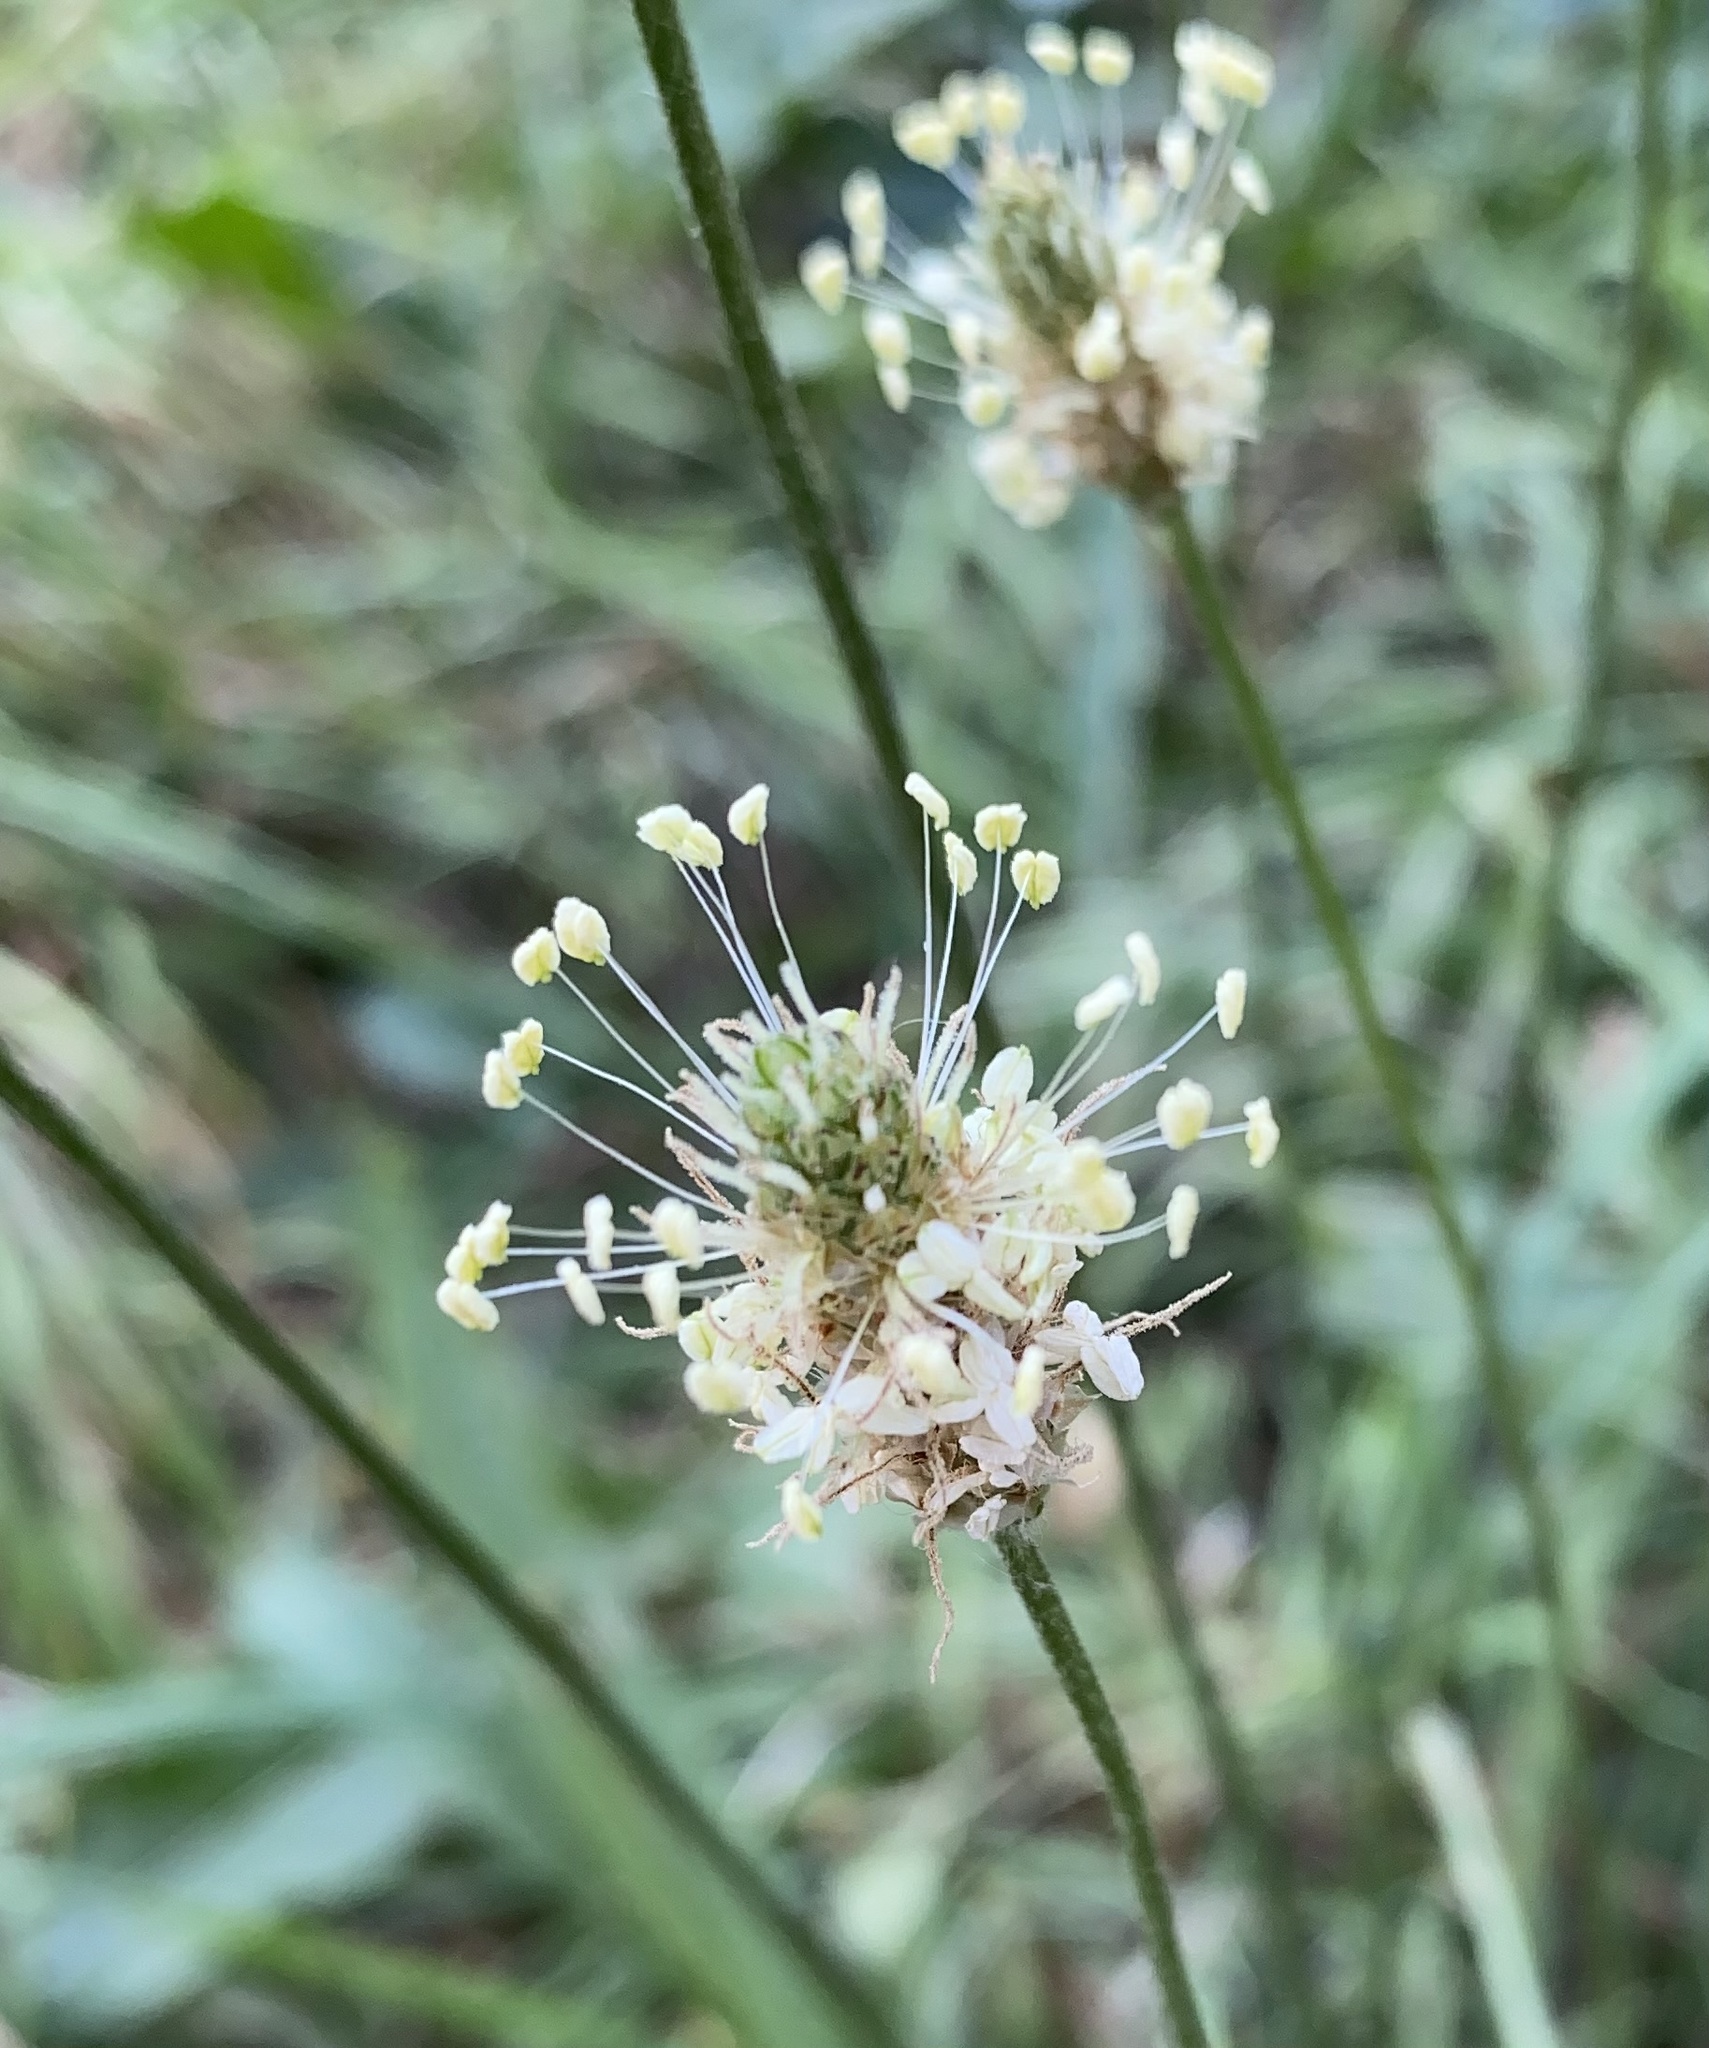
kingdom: Plantae
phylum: Tracheophyta
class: Magnoliopsida
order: Lamiales
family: Plantaginaceae
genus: Plantago
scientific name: Plantago lanceolata
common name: Ribwort plantain
